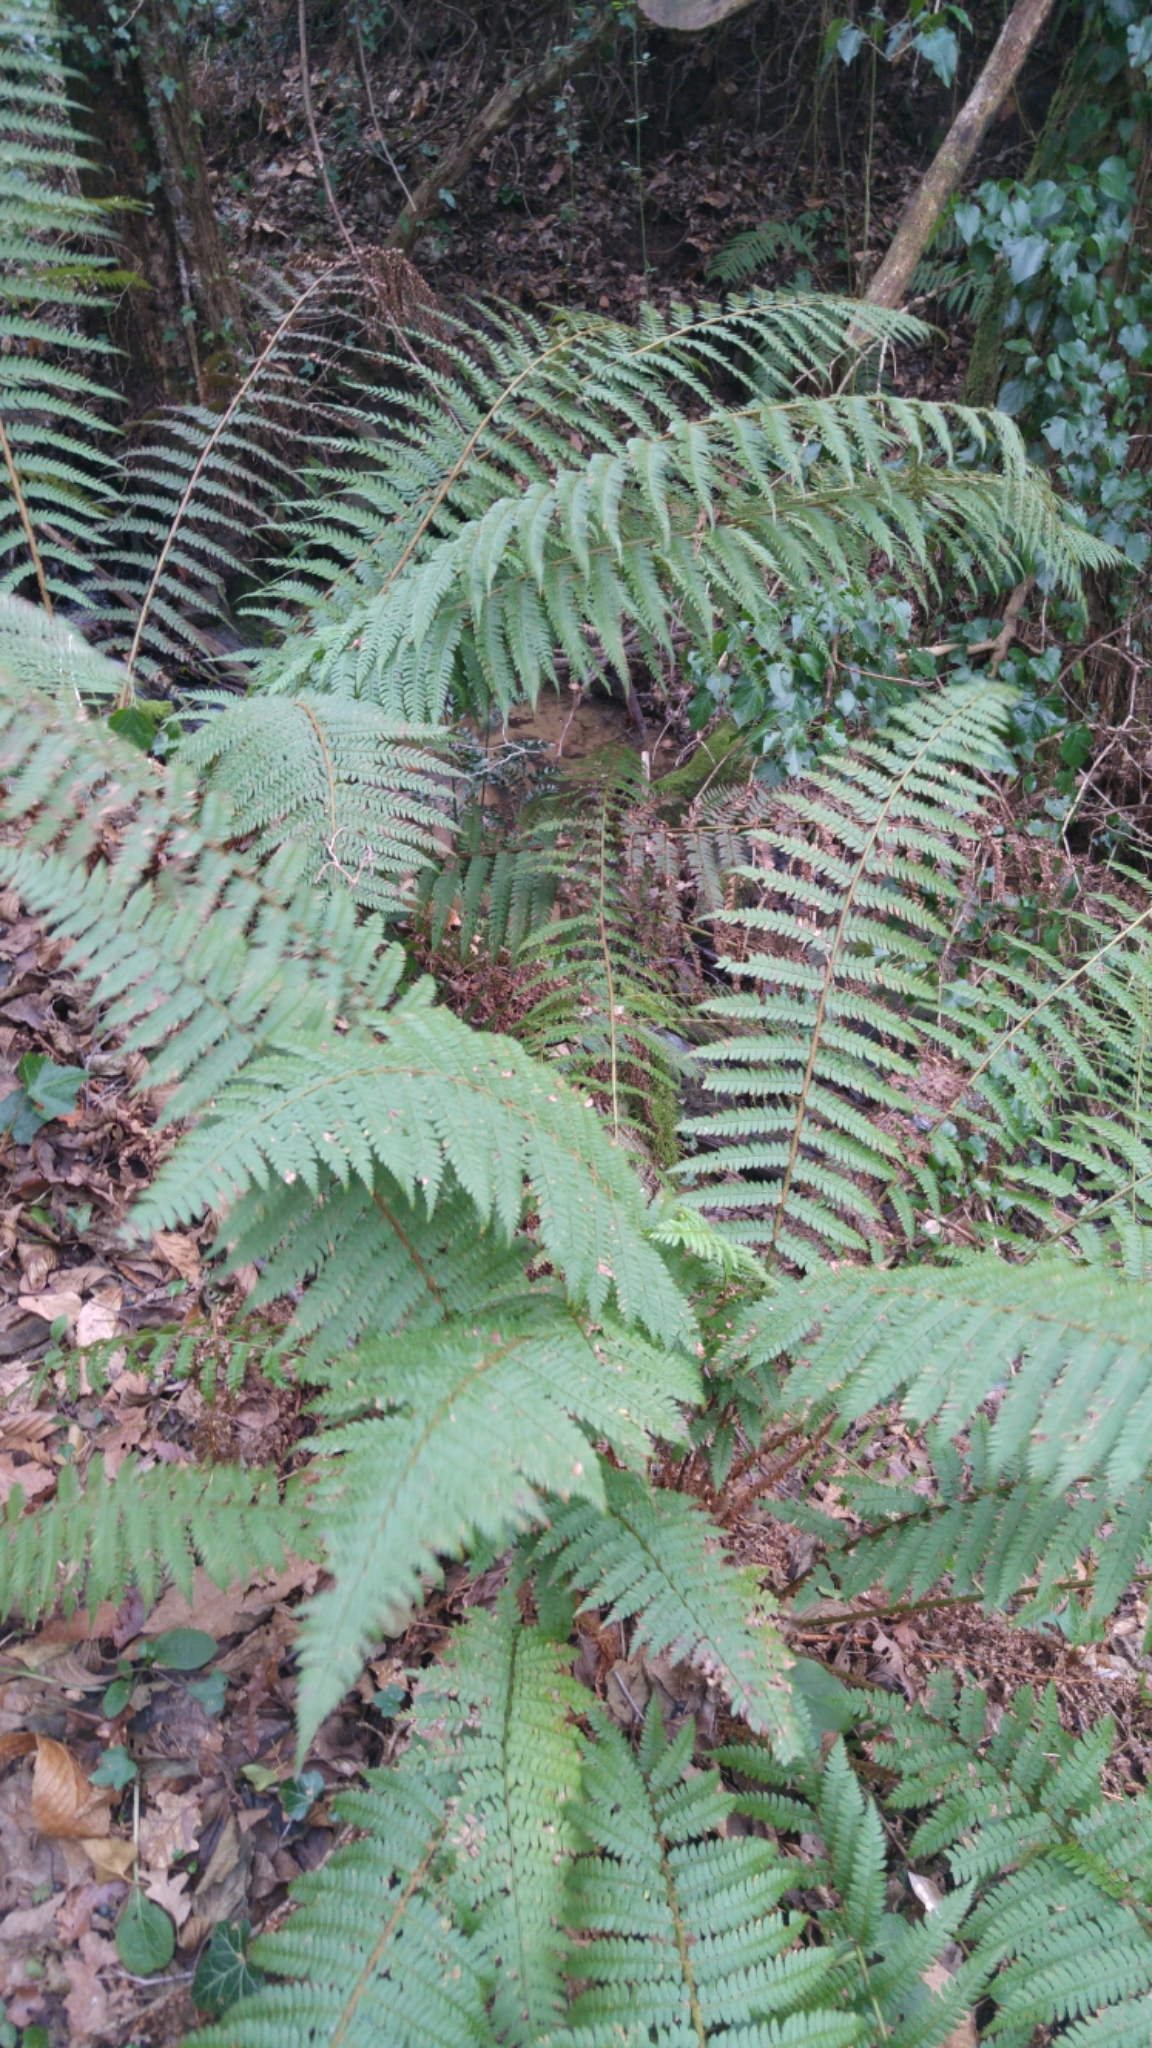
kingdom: Plantae
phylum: Tracheophyta
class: Polypodiopsida
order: Polypodiales
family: Dryopteridaceae
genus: Polystichum
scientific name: Polystichum setiferum
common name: Soft shield-fern
